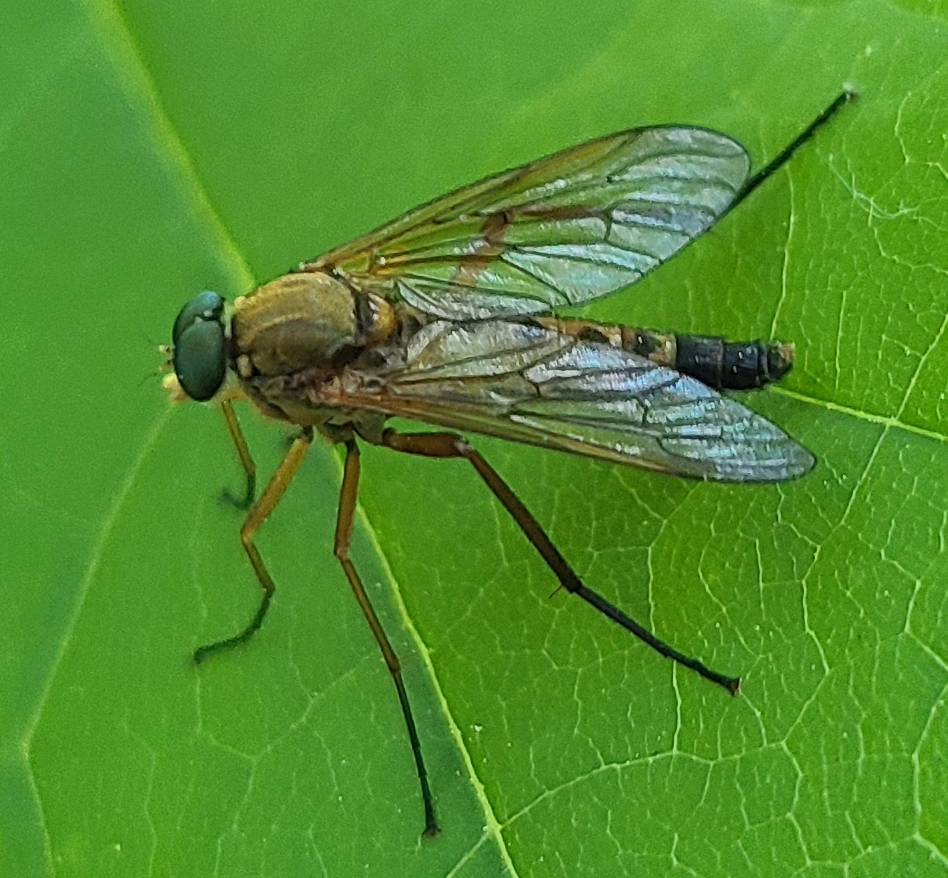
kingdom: Animalia
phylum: Arthropoda
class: Insecta
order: Diptera
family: Rhagionidae
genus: Rhagio
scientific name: Rhagio tringaria
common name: Marsh snipefly
